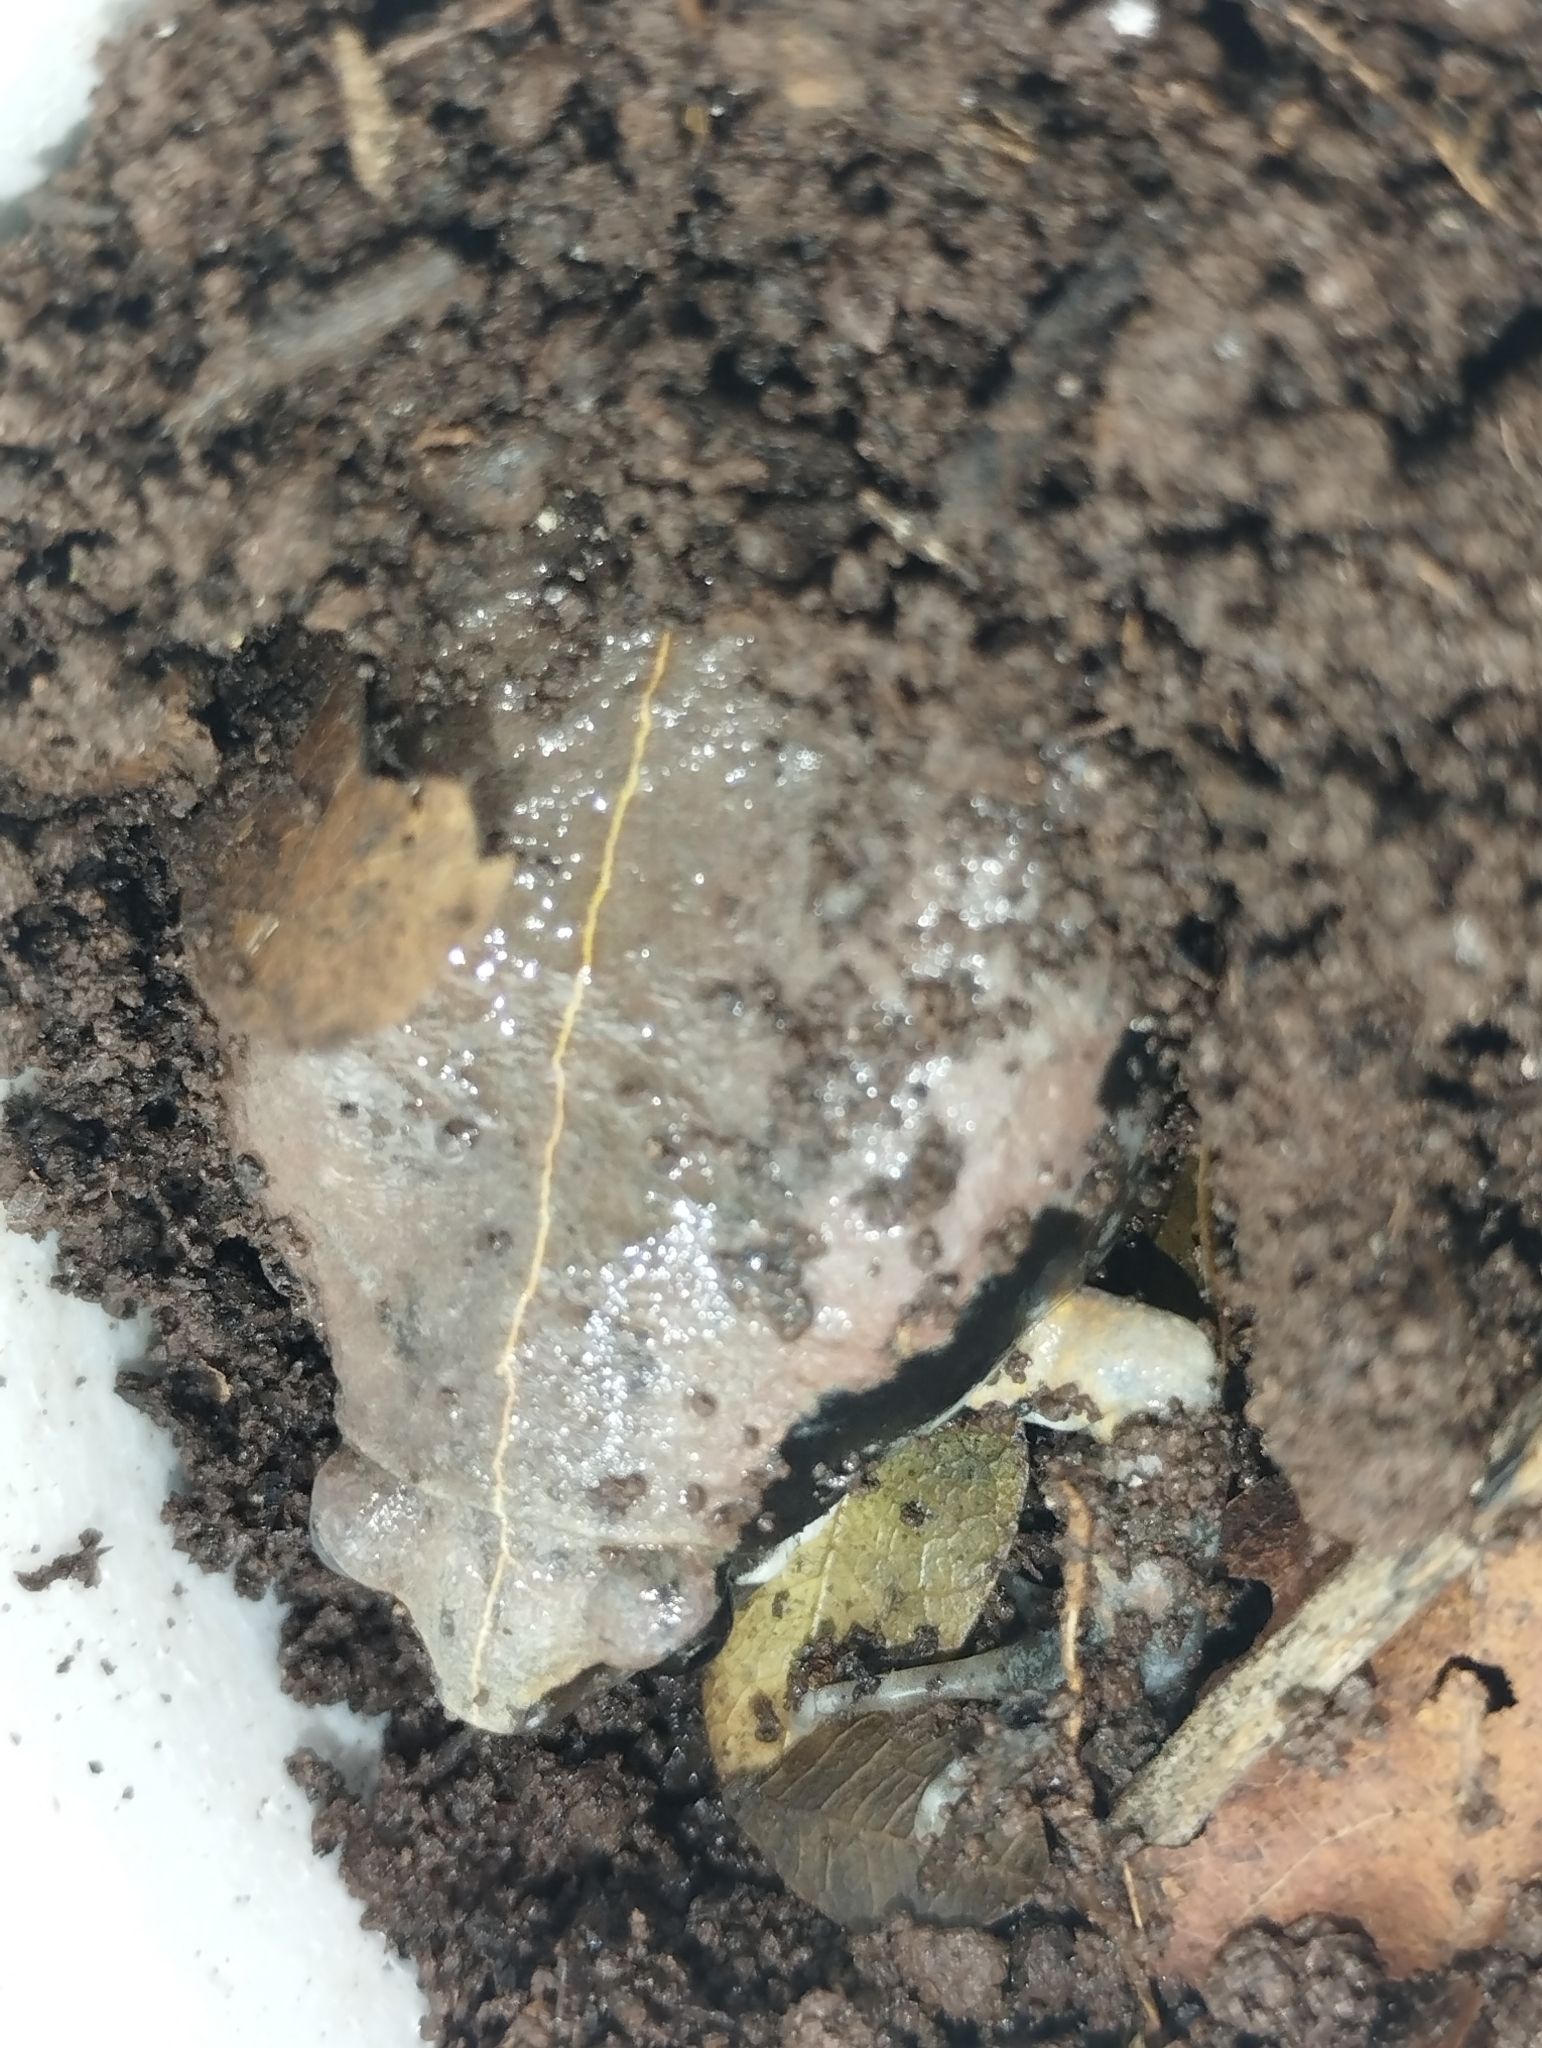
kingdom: Animalia
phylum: Chordata
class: Amphibia
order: Anura
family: Microhylidae
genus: Hypopachus
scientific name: Hypopachus variolosus
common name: Sheep frog
